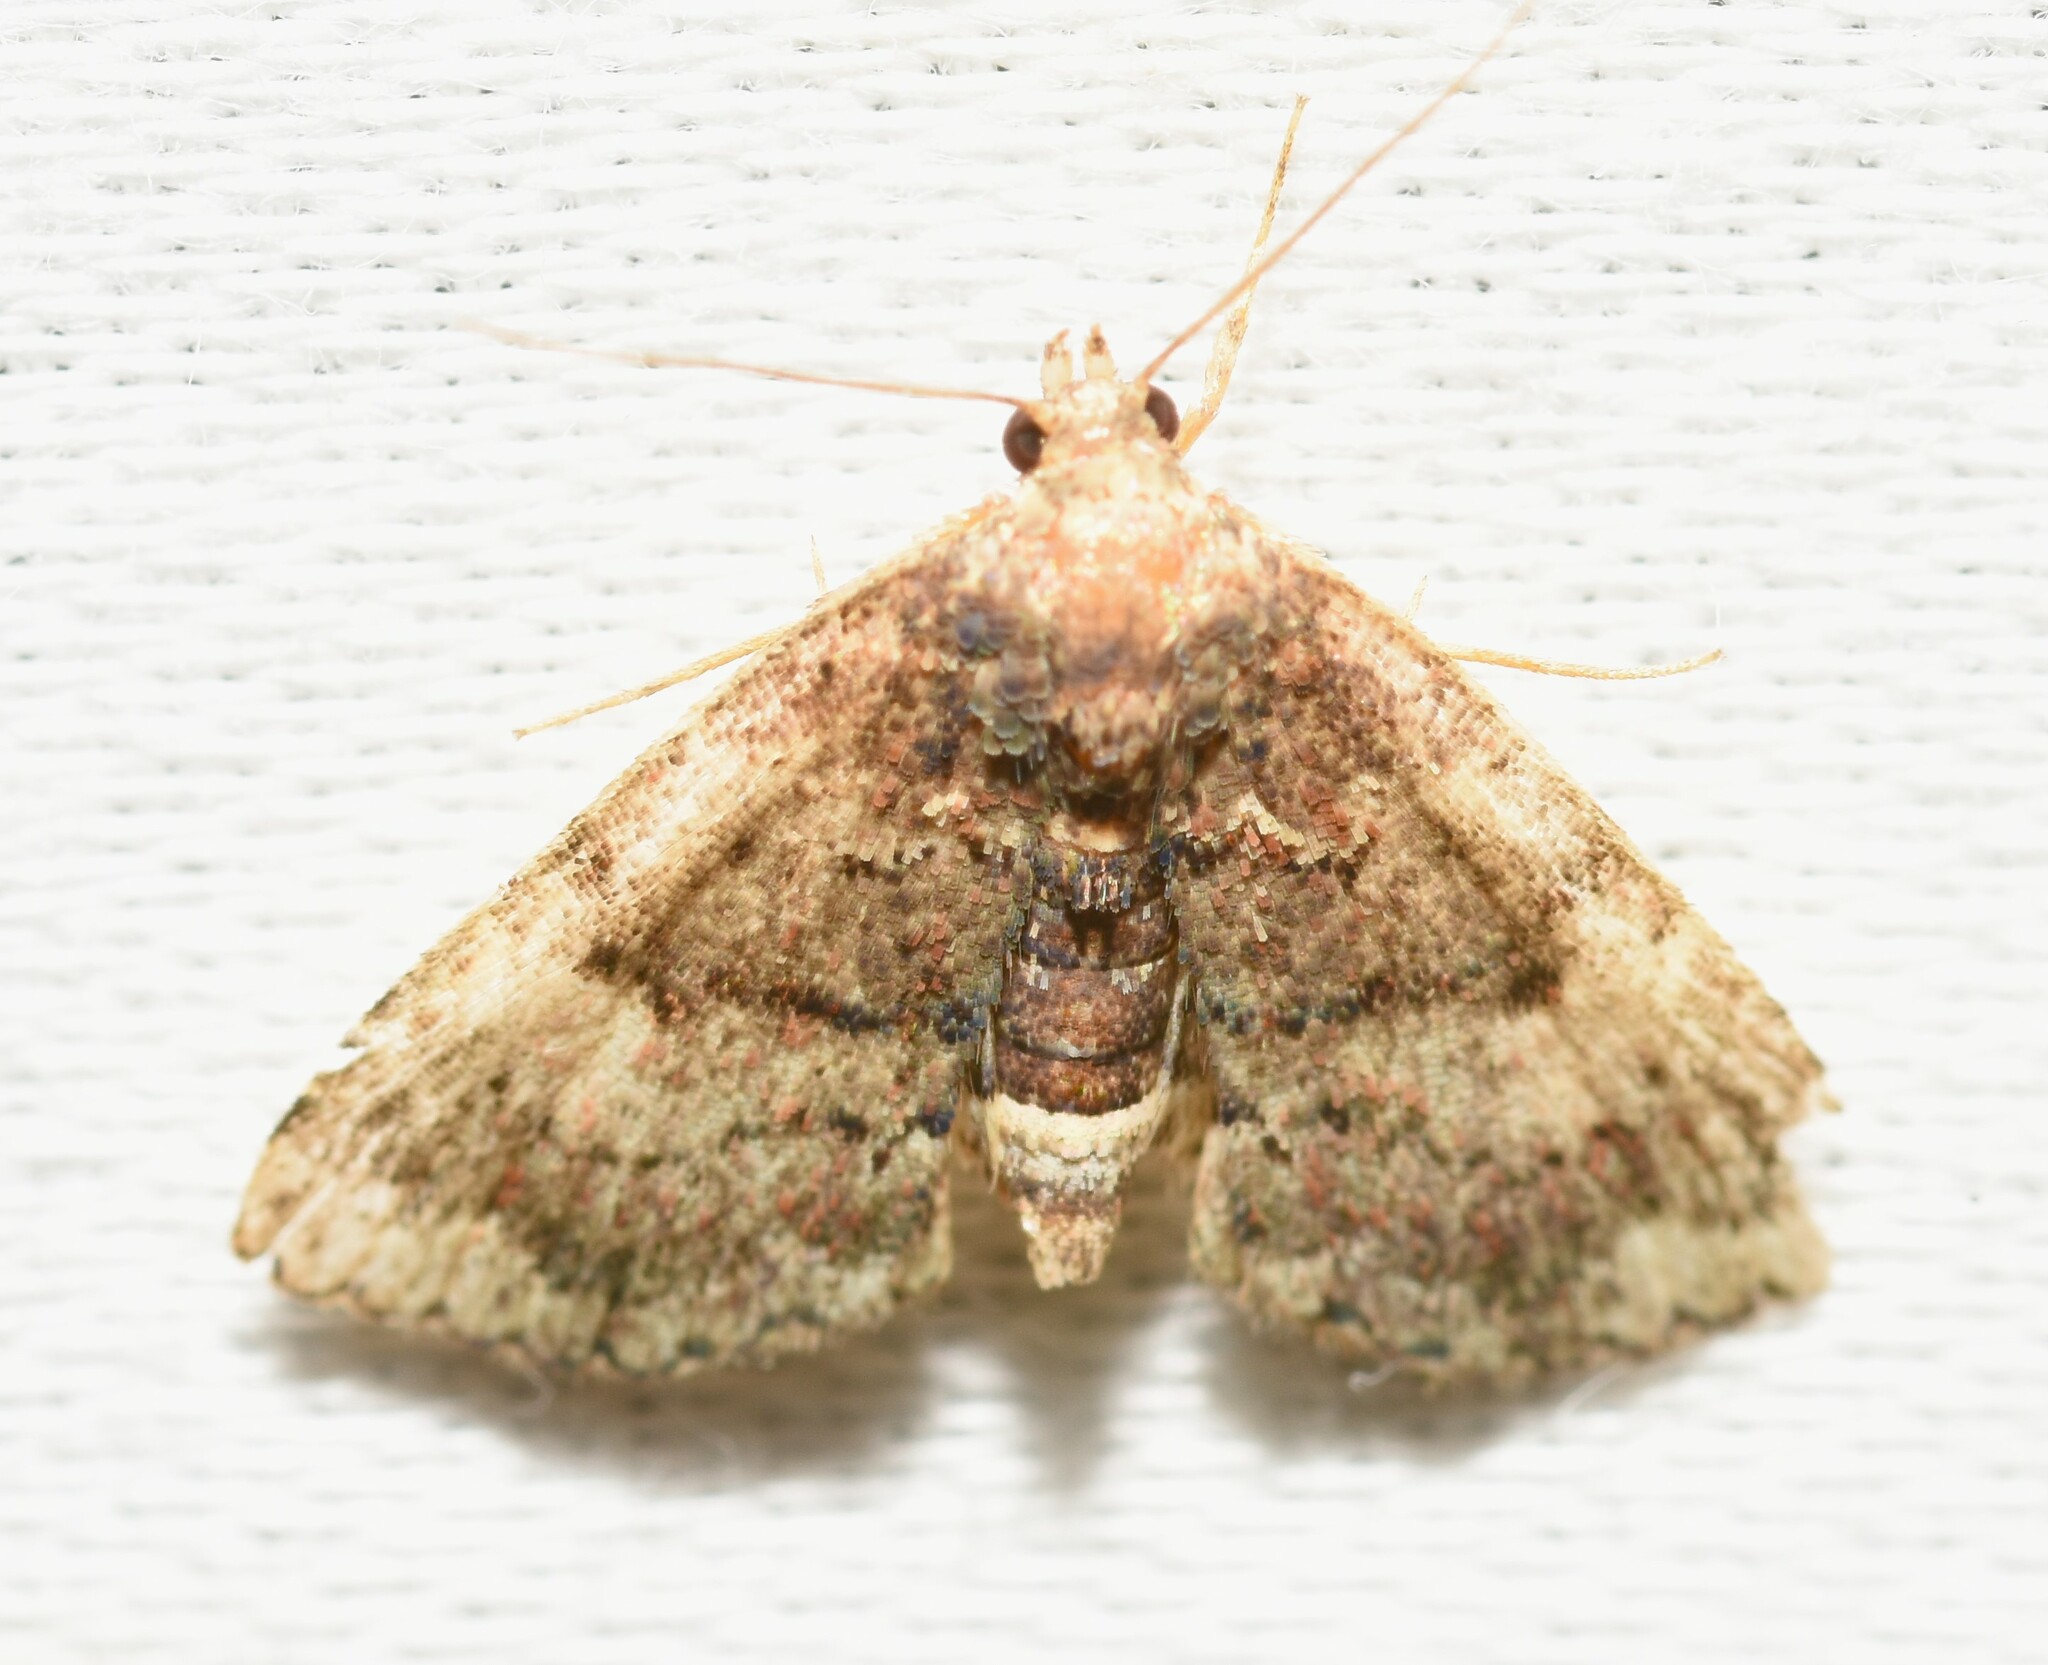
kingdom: Animalia
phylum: Arthropoda
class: Insecta
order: Lepidoptera
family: Erebidae
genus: Metalectra
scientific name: Metalectra richardsi
